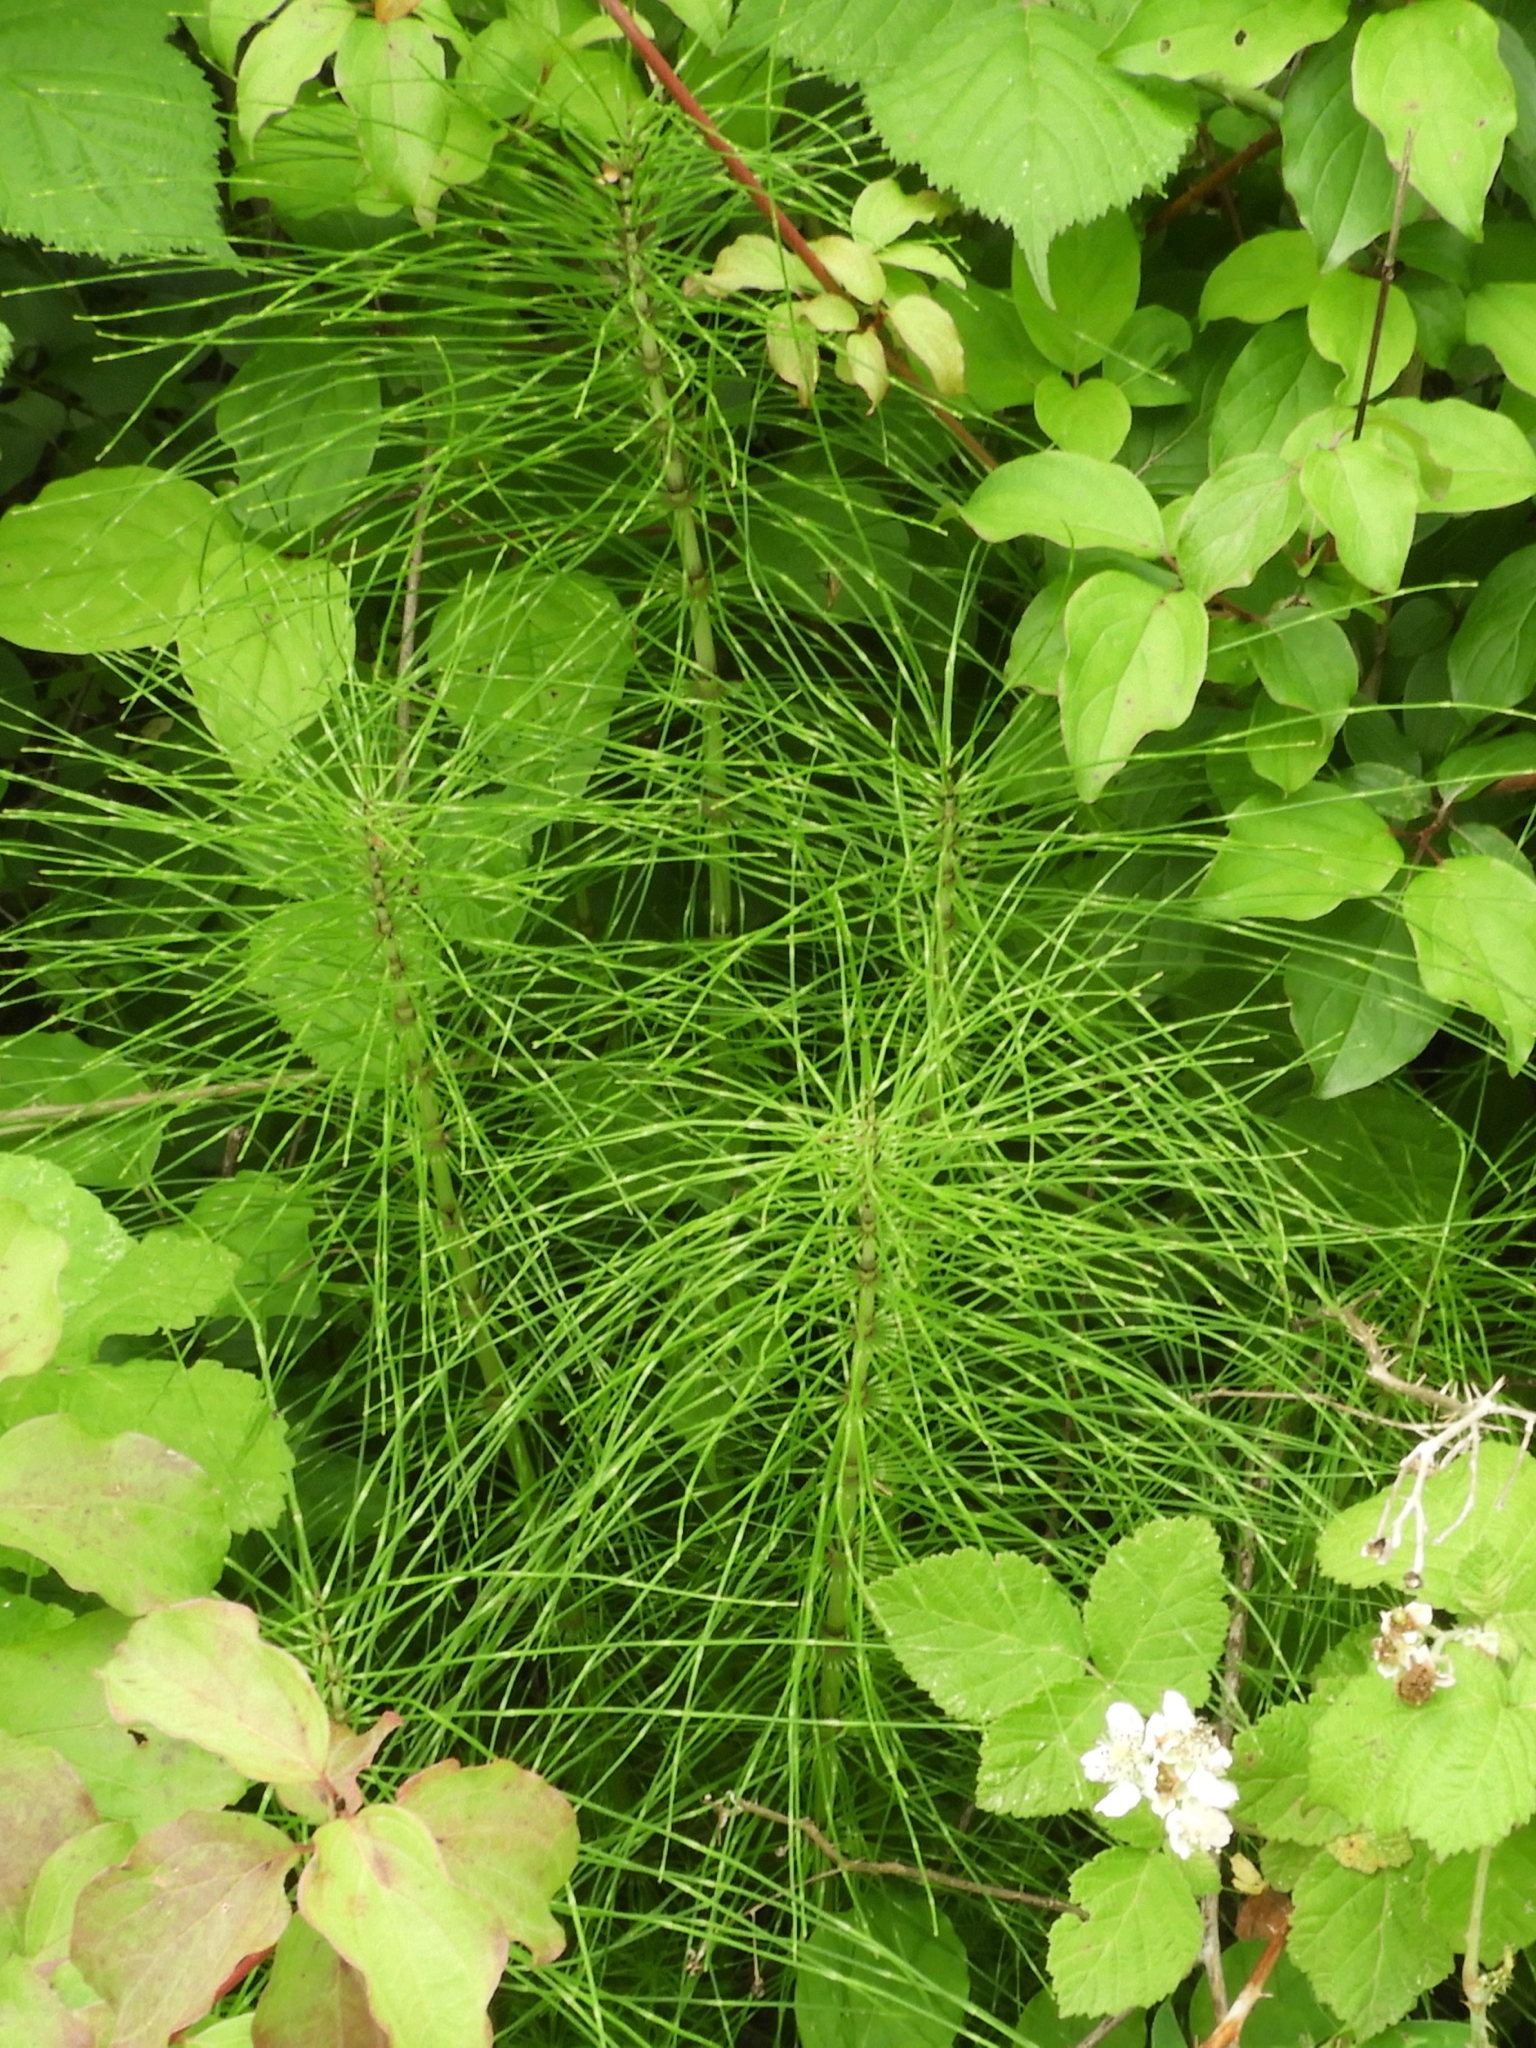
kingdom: Plantae
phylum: Tracheophyta
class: Polypodiopsida
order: Equisetales
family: Equisetaceae
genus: Equisetum
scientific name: Equisetum telmateia
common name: Great horsetail
